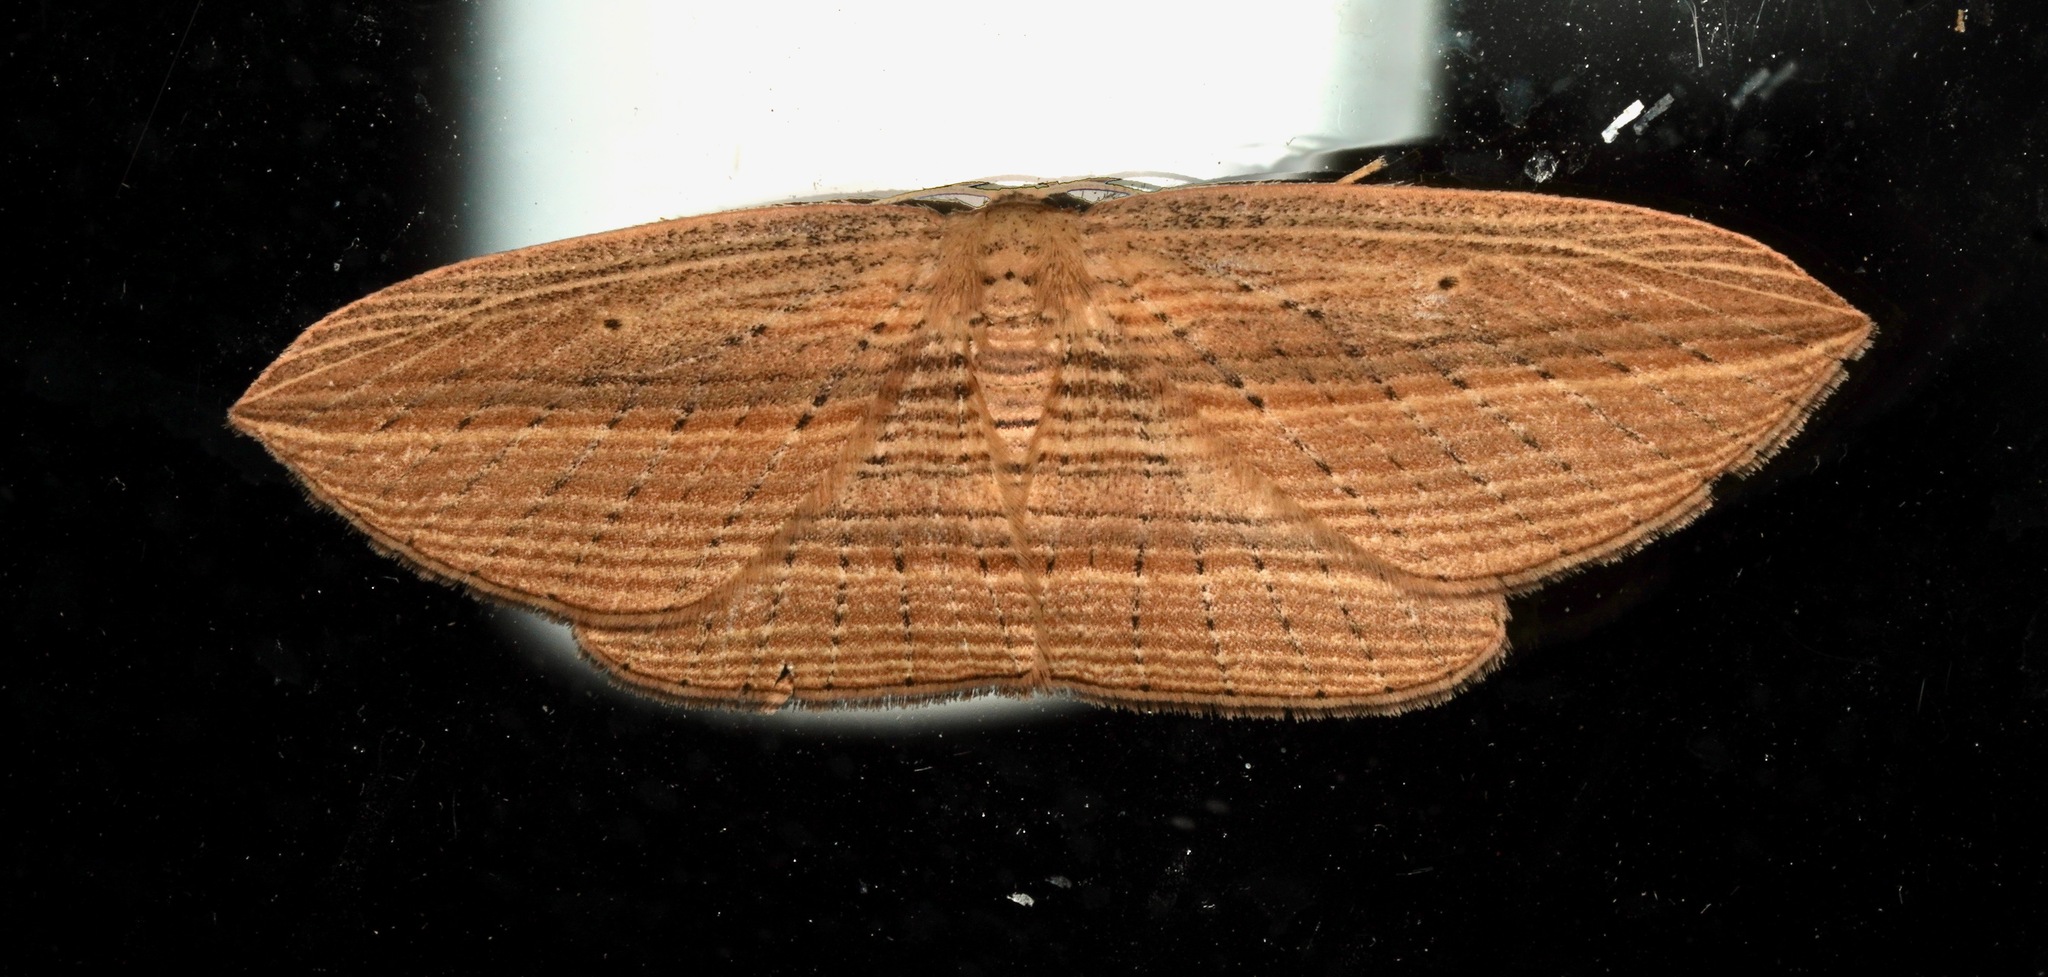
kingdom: Animalia
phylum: Arthropoda
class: Insecta
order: Lepidoptera
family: Geometridae
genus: Epiphryne
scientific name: Epiphryne verriculata
